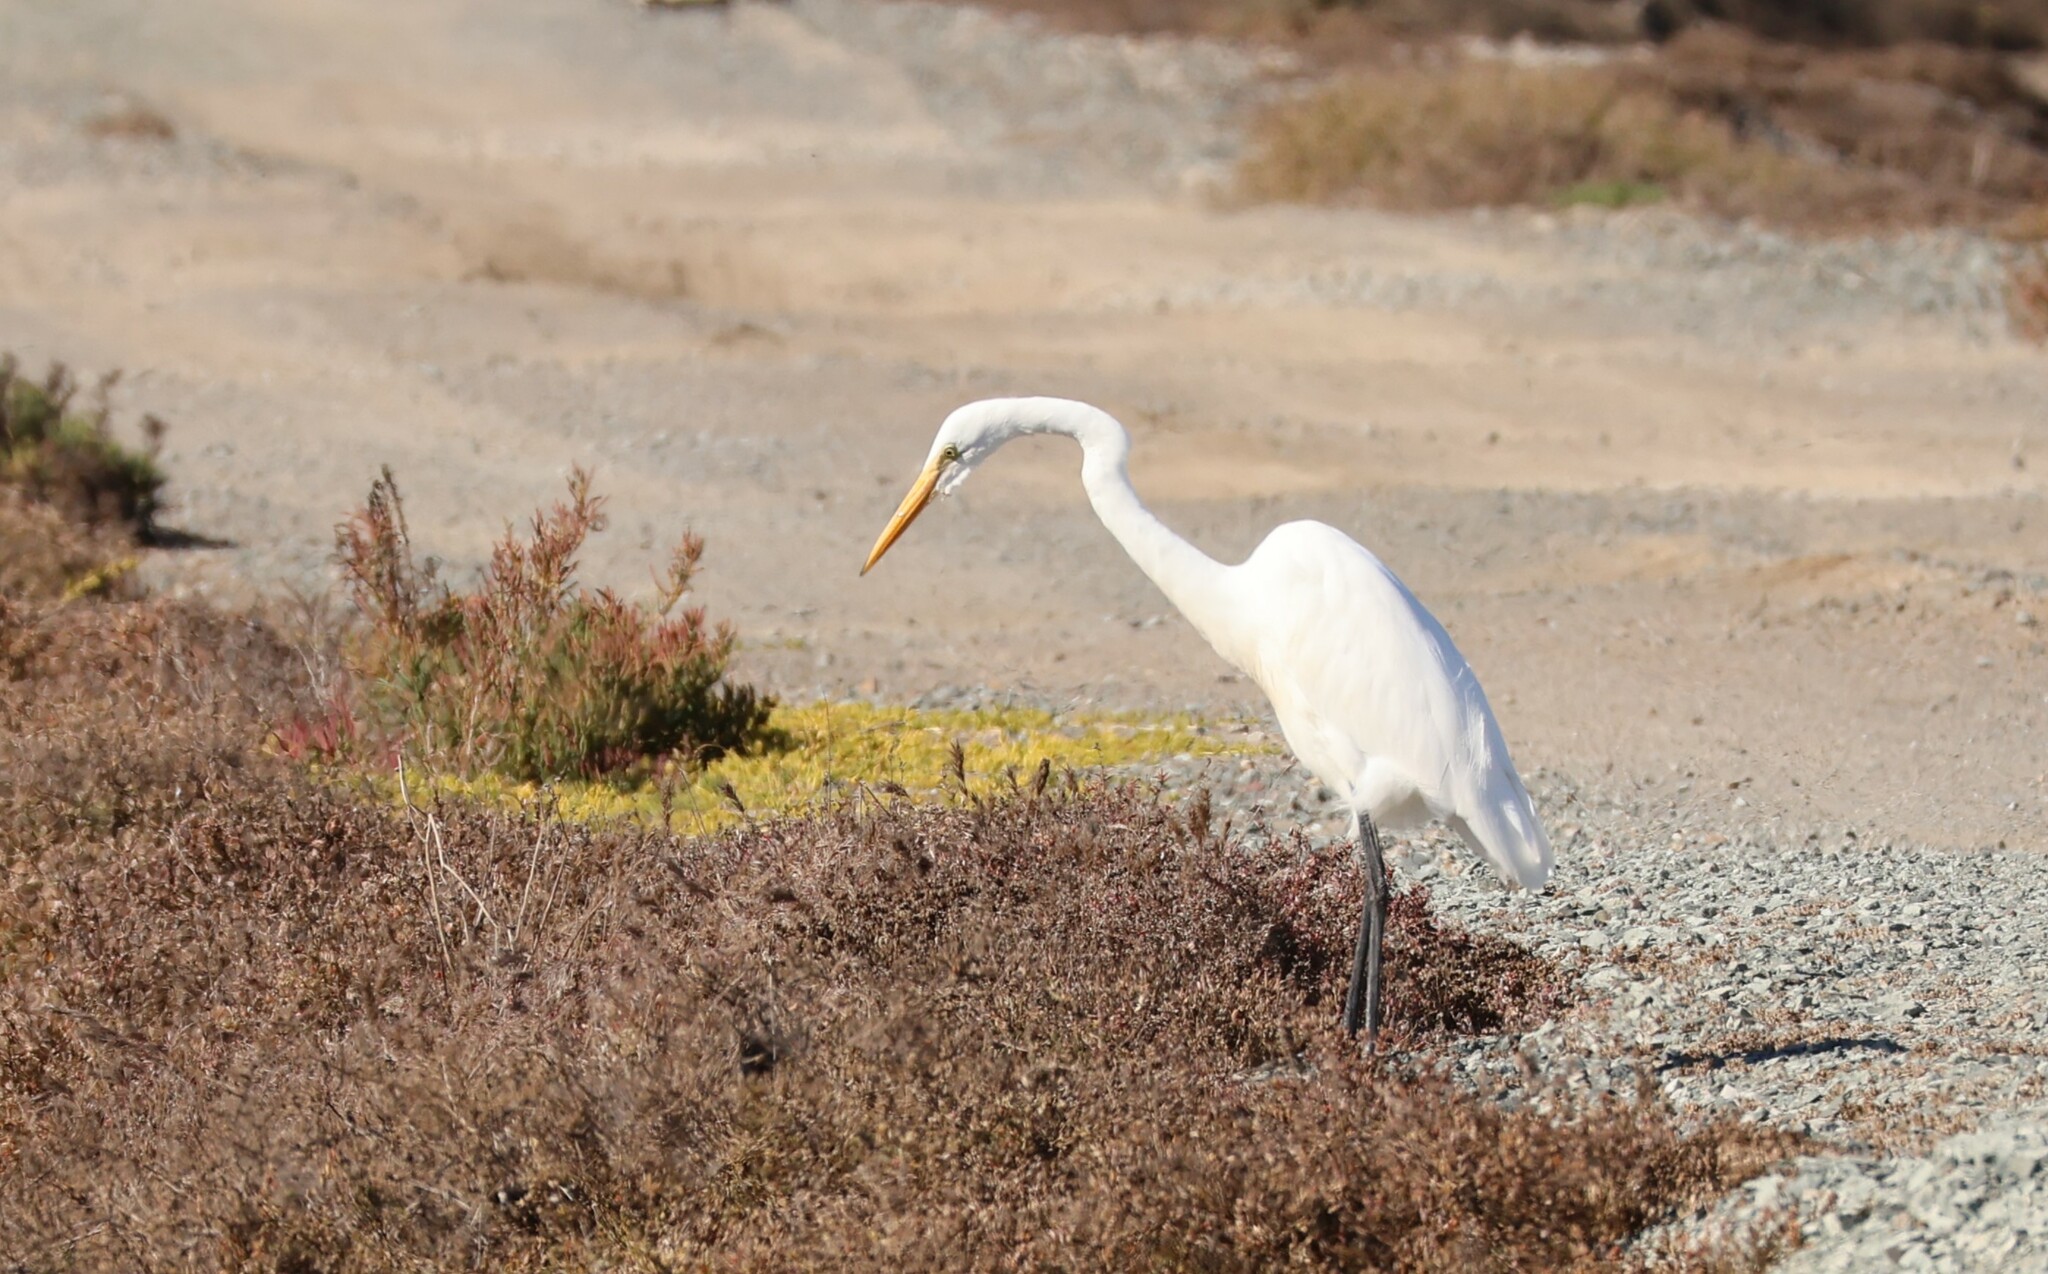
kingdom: Animalia
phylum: Chordata
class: Aves
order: Pelecaniformes
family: Ardeidae
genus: Ardea
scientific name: Ardea alba
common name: Great egret
